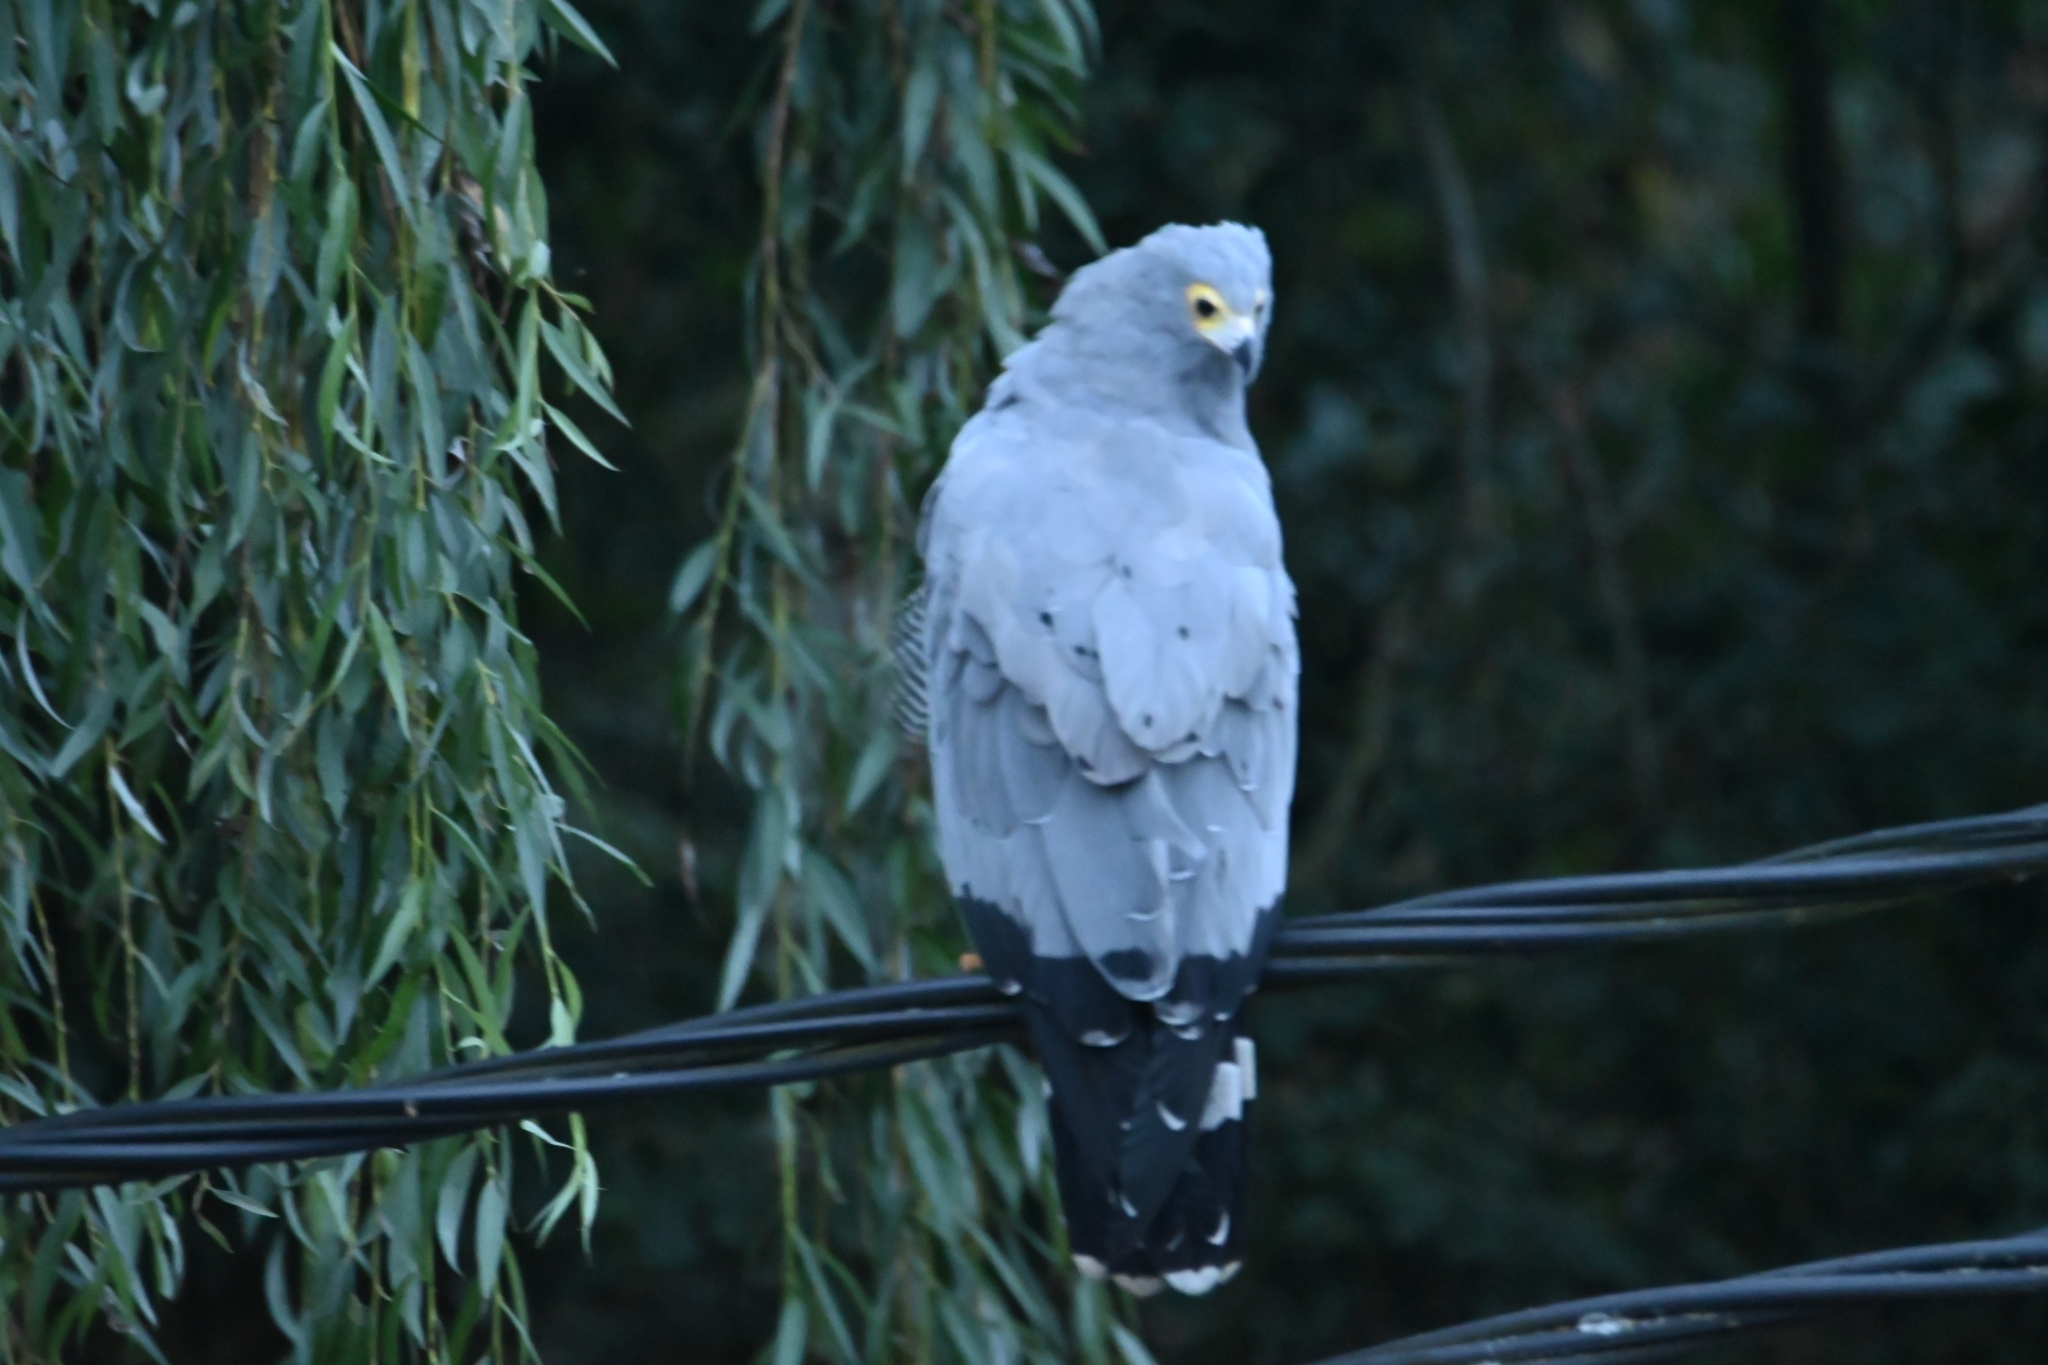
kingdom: Animalia
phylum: Chordata
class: Aves
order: Accipitriformes
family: Accipitridae
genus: Polyboroides
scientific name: Polyboroides typus
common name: African harrier-hawk
